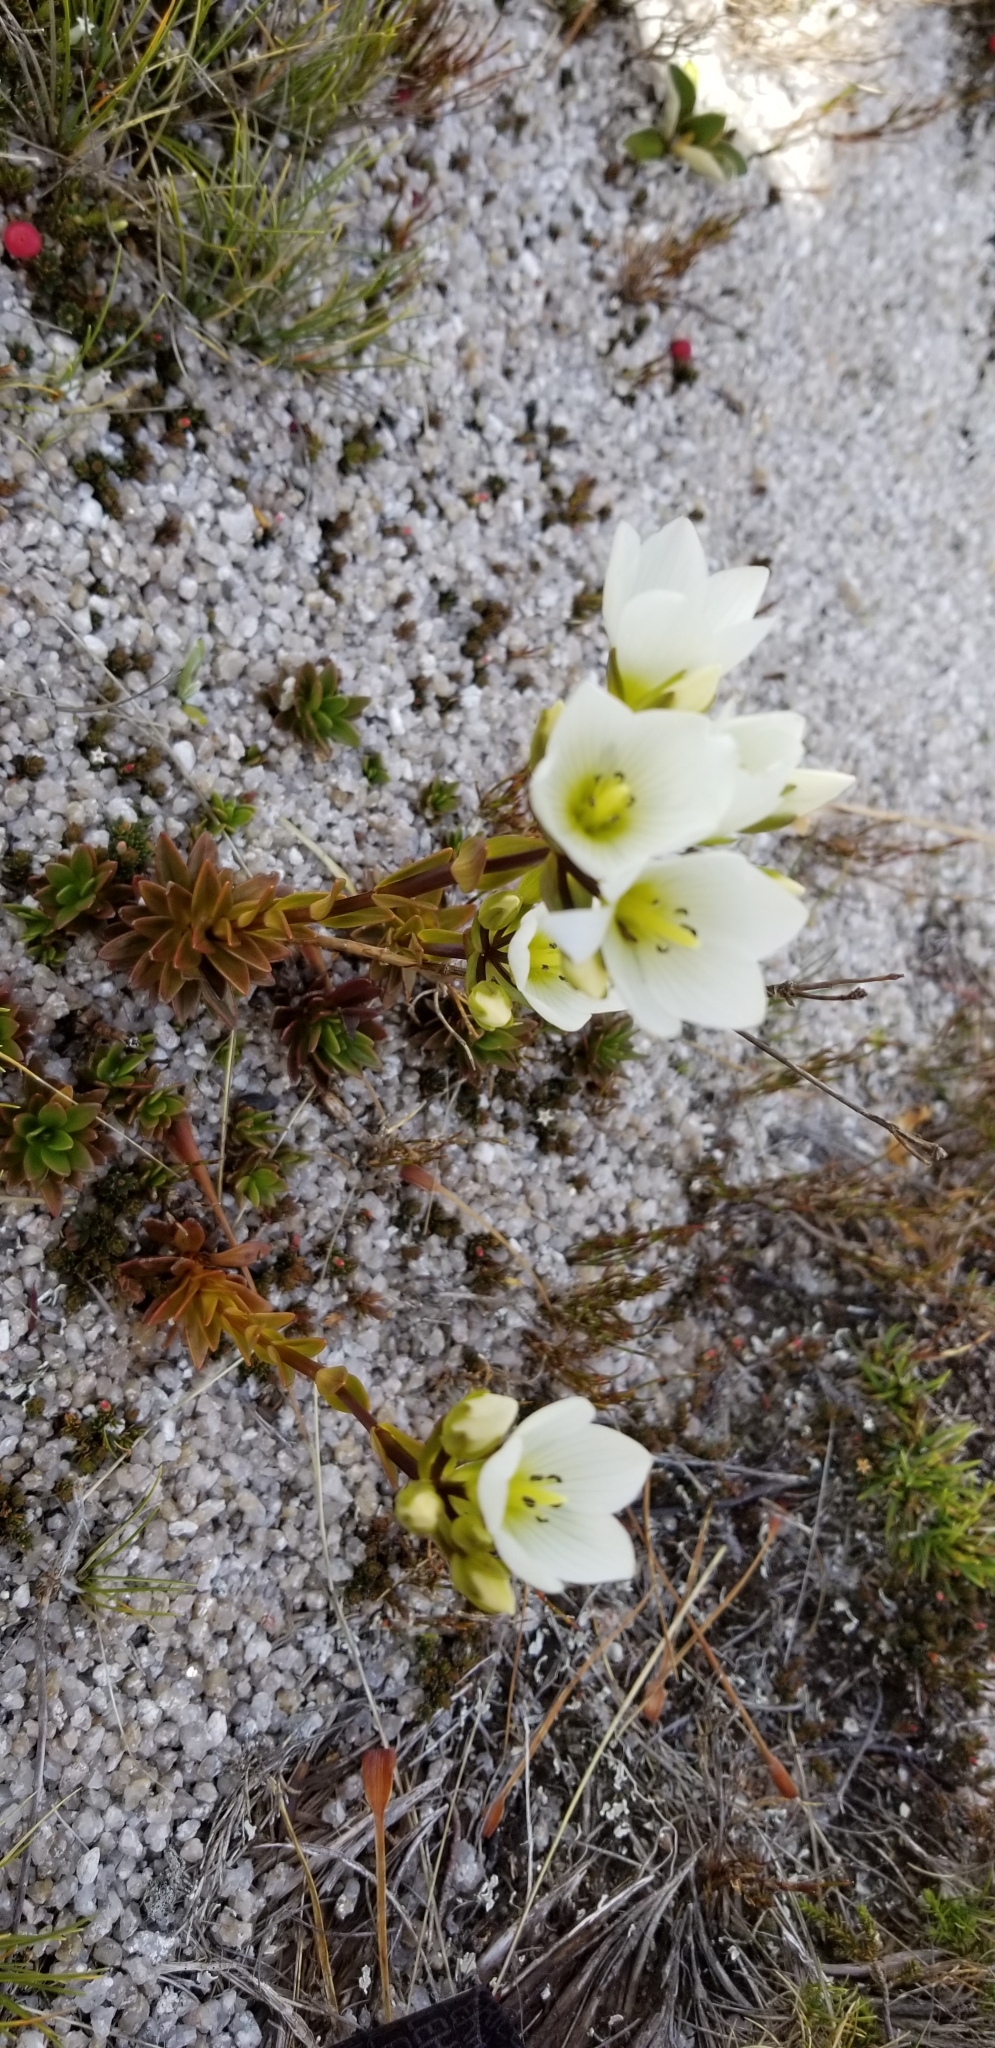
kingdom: Plantae
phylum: Tracheophyta
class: Magnoliopsida
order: Gentianales
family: Gentianaceae
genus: Gentianella
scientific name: Gentianella montana
